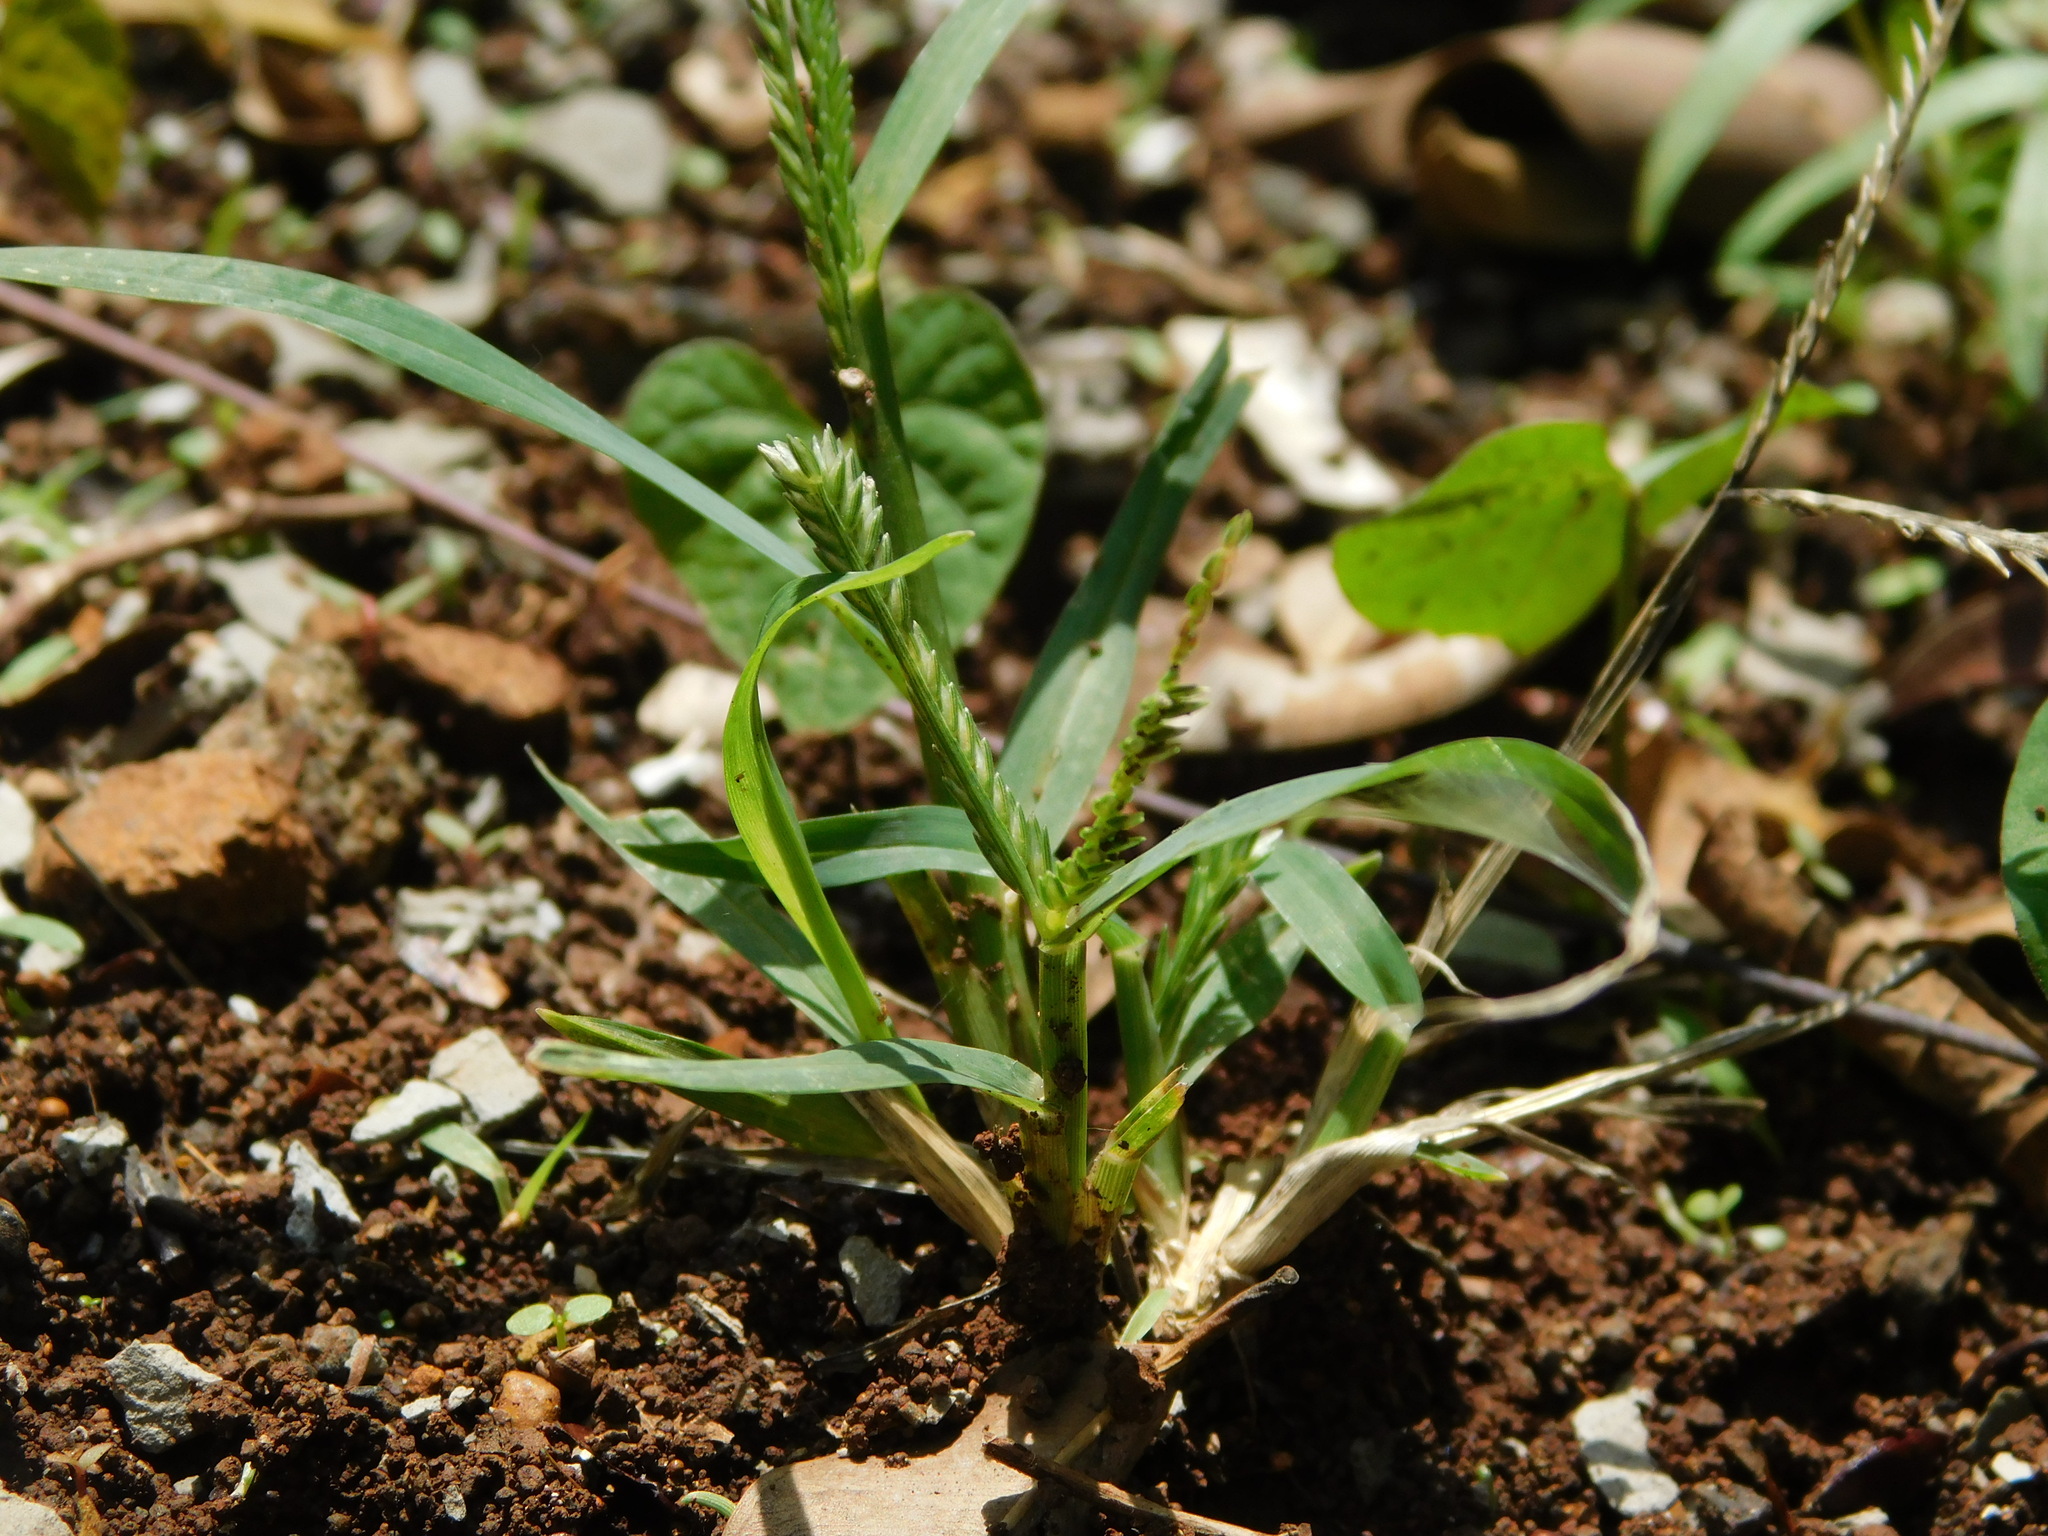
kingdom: Plantae
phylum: Tracheophyta
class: Liliopsida
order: Poales
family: Poaceae
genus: Eleusine
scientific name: Eleusine indica
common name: Yard-grass
